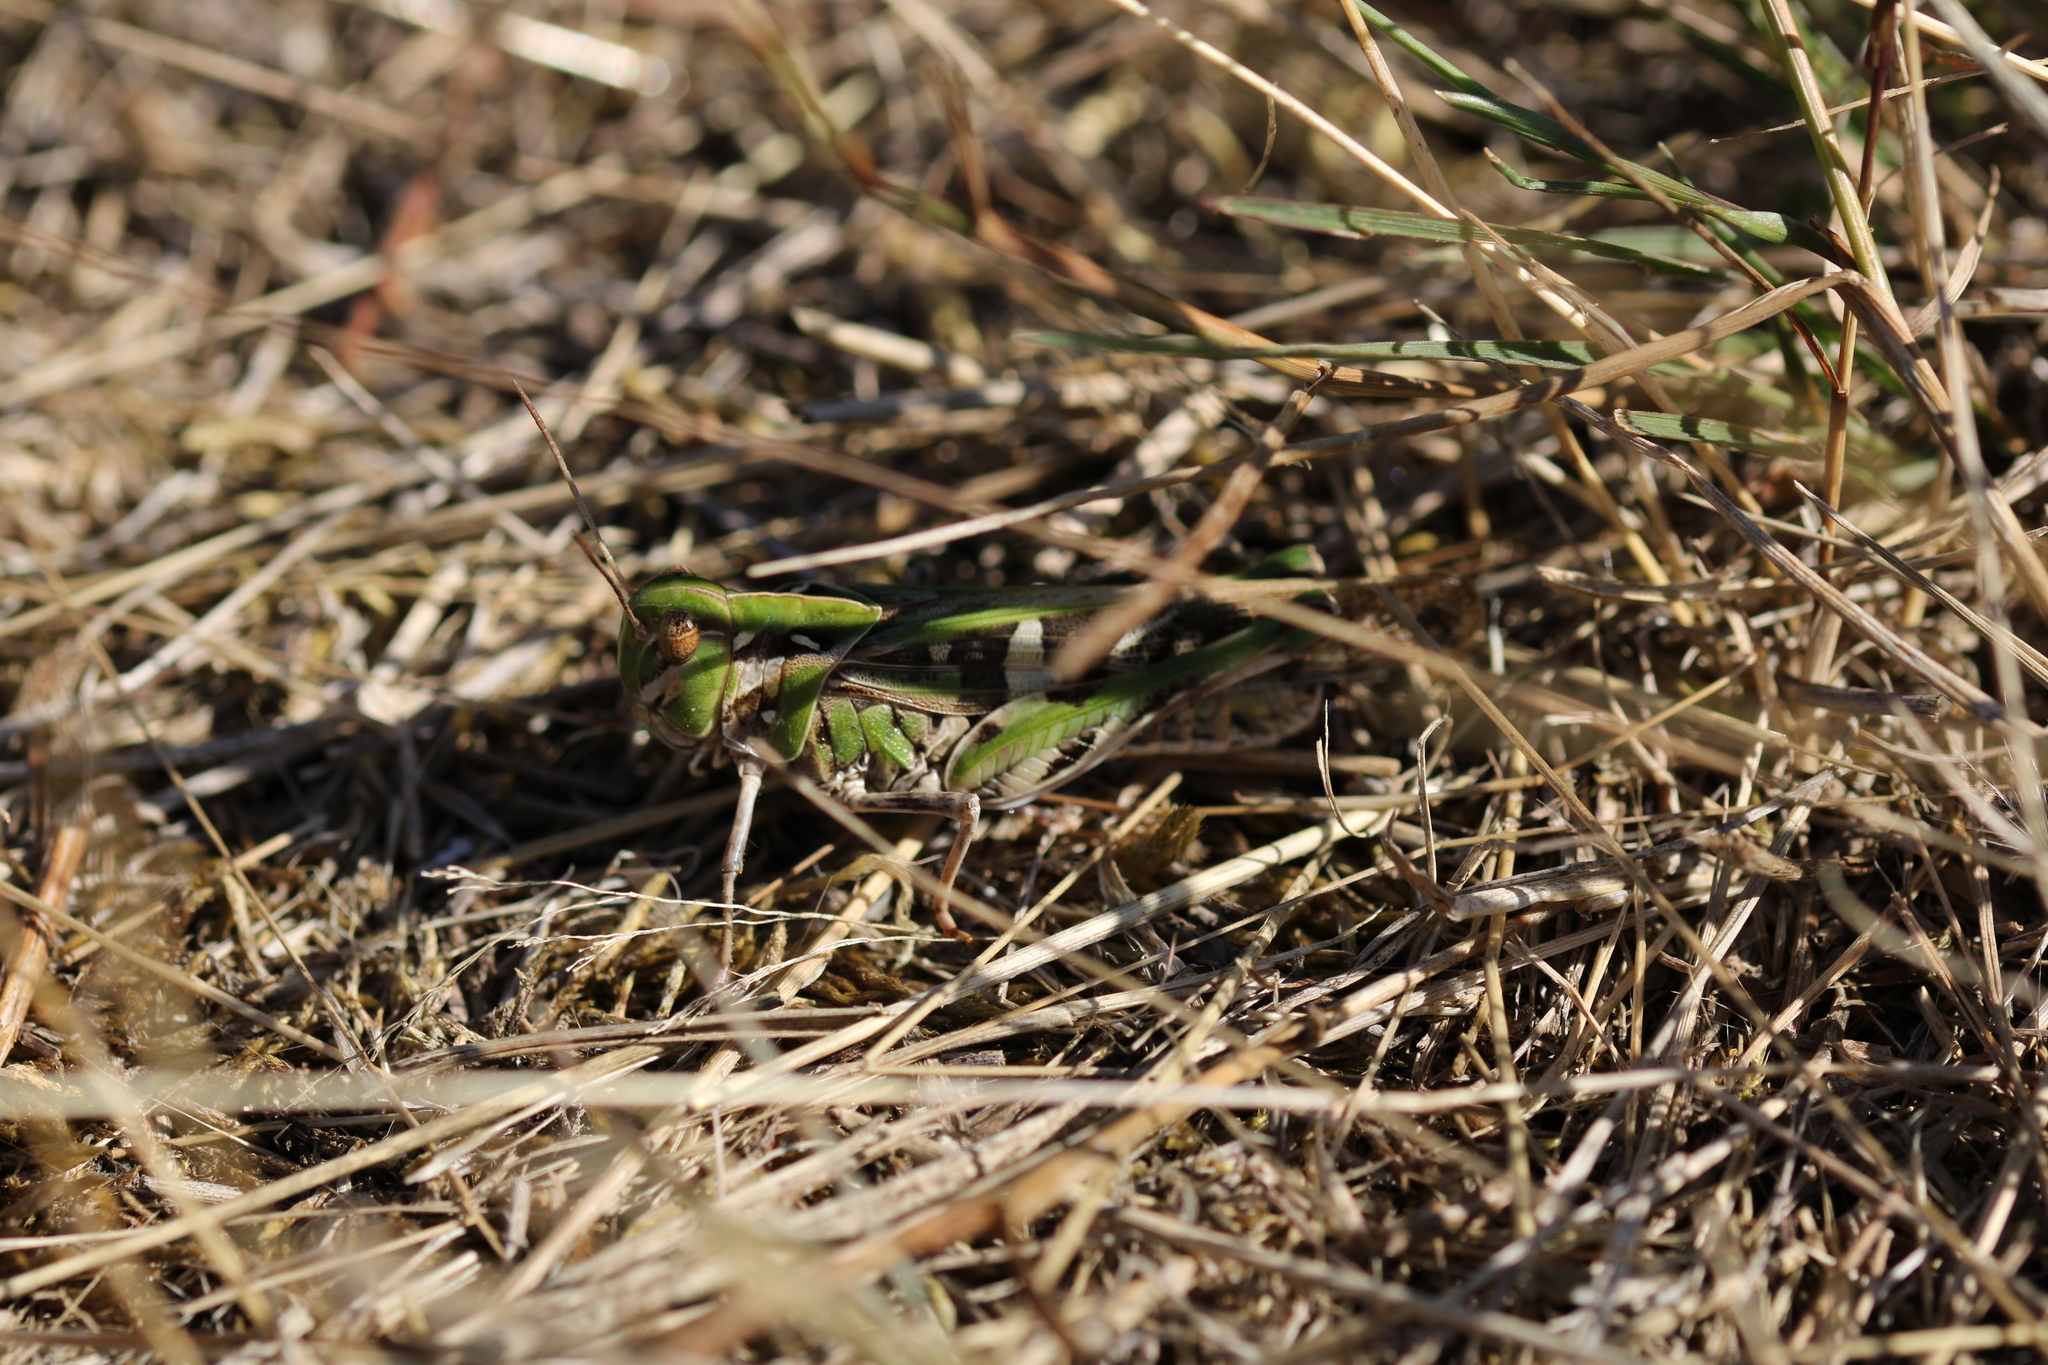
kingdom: Animalia
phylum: Arthropoda
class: Insecta
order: Orthoptera
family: Acrididae
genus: Oedaleus
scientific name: Oedaleus decorus
